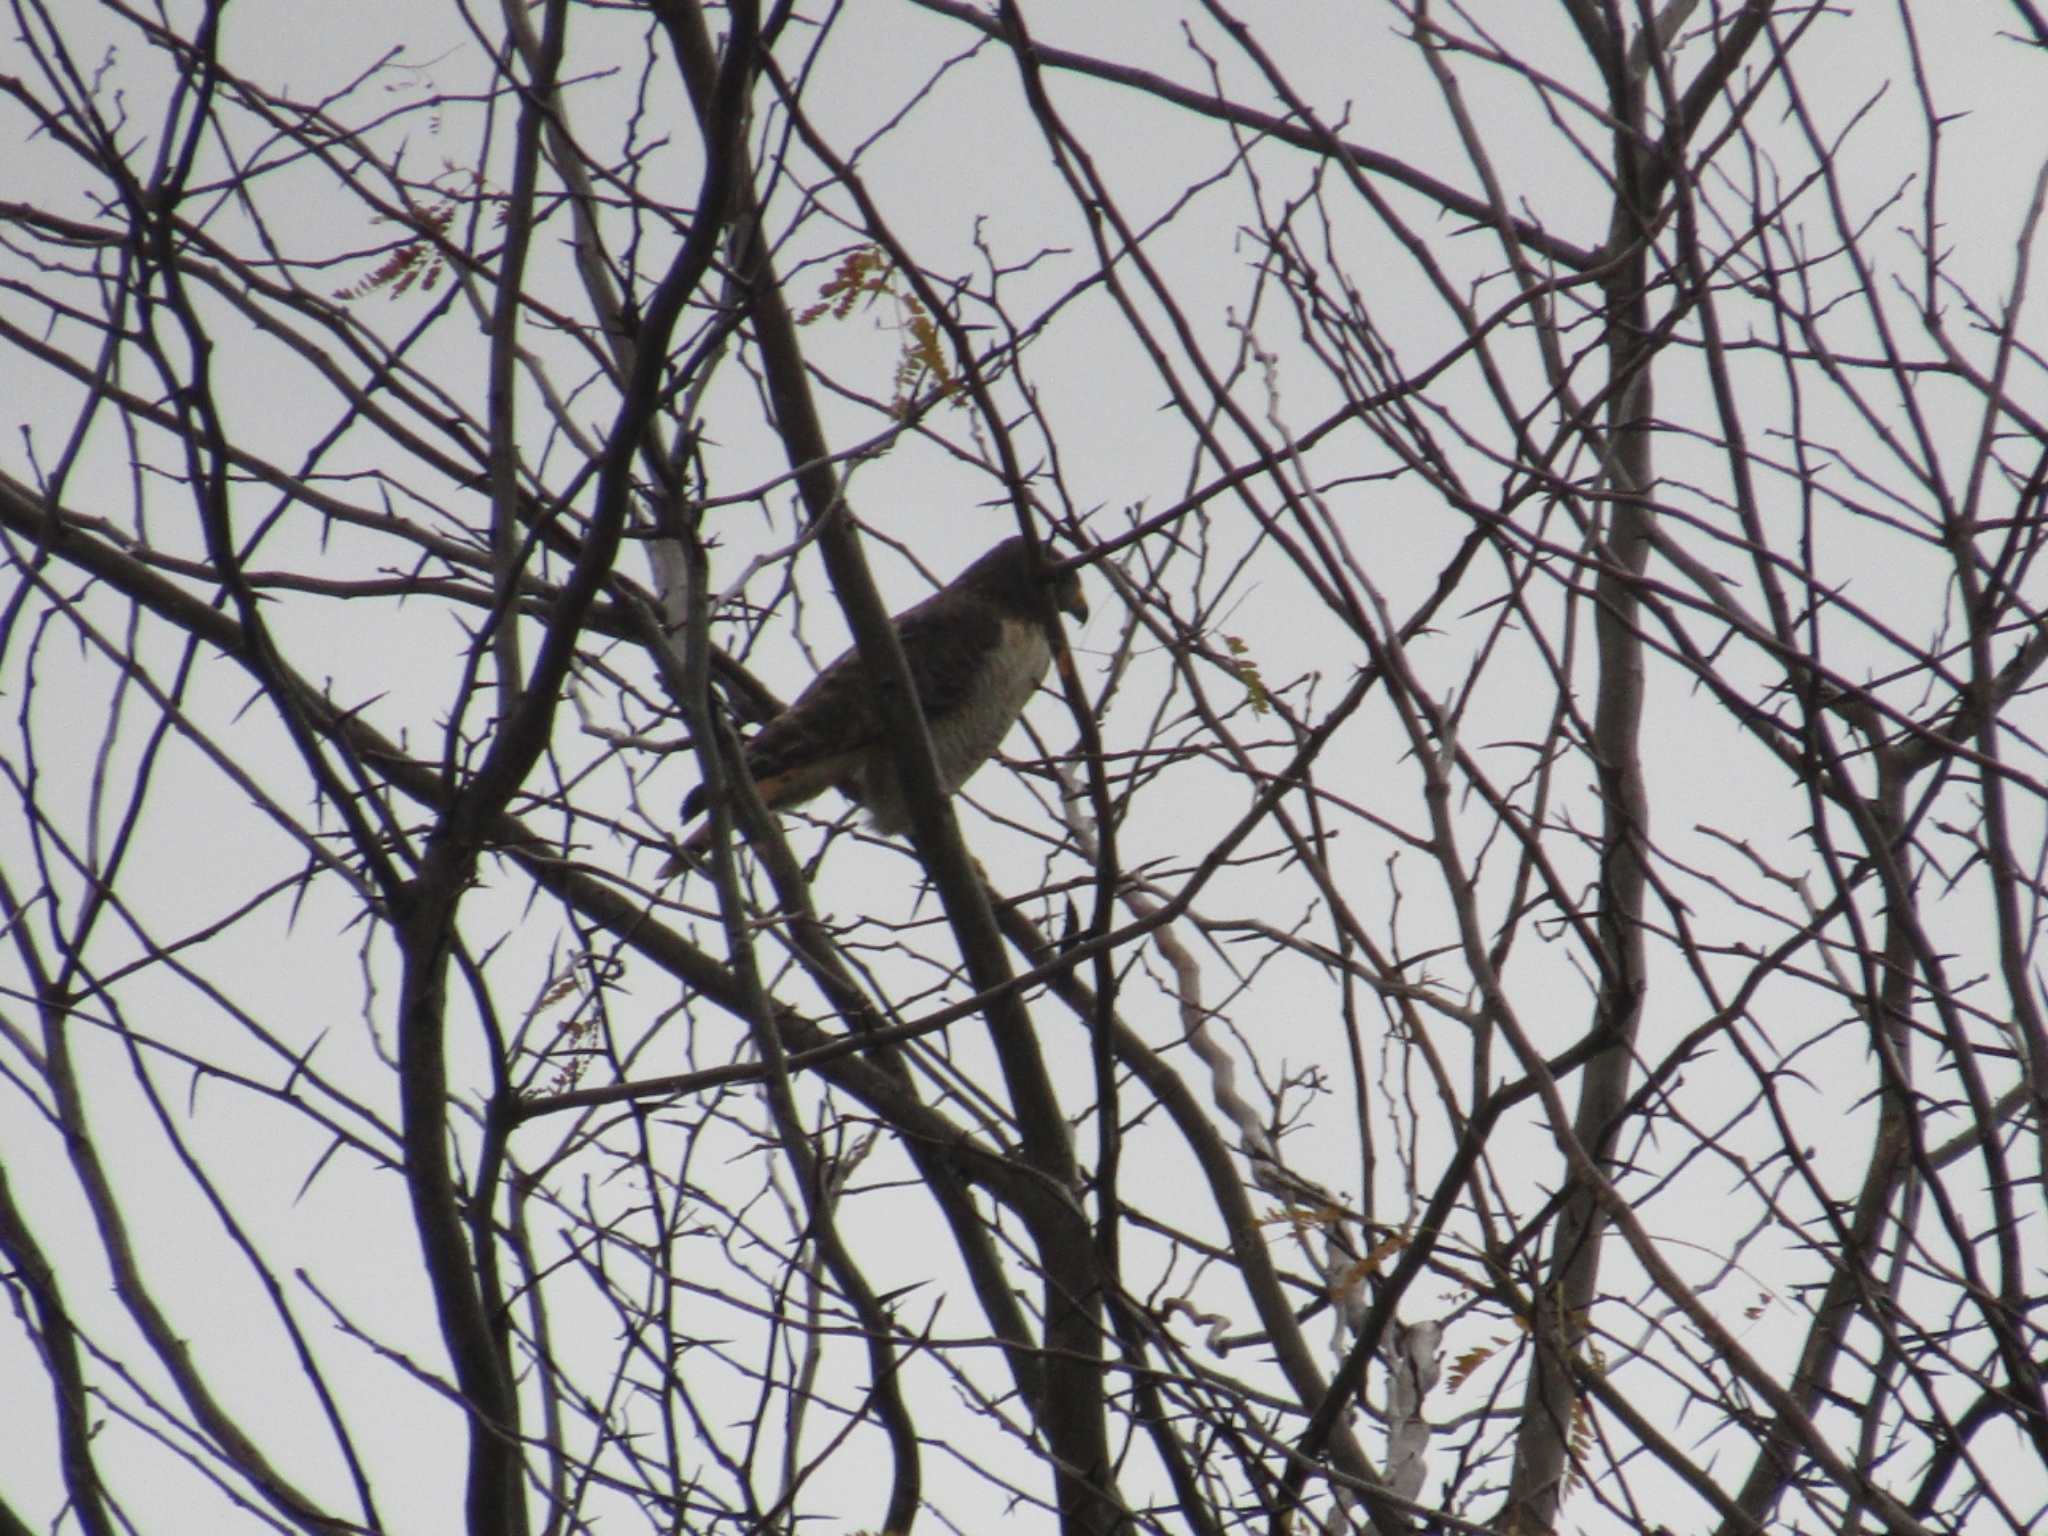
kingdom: Animalia
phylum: Chordata
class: Aves
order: Accipitriformes
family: Accipitridae
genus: Rupornis
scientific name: Rupornis magnirostris
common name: Roadside hawk
